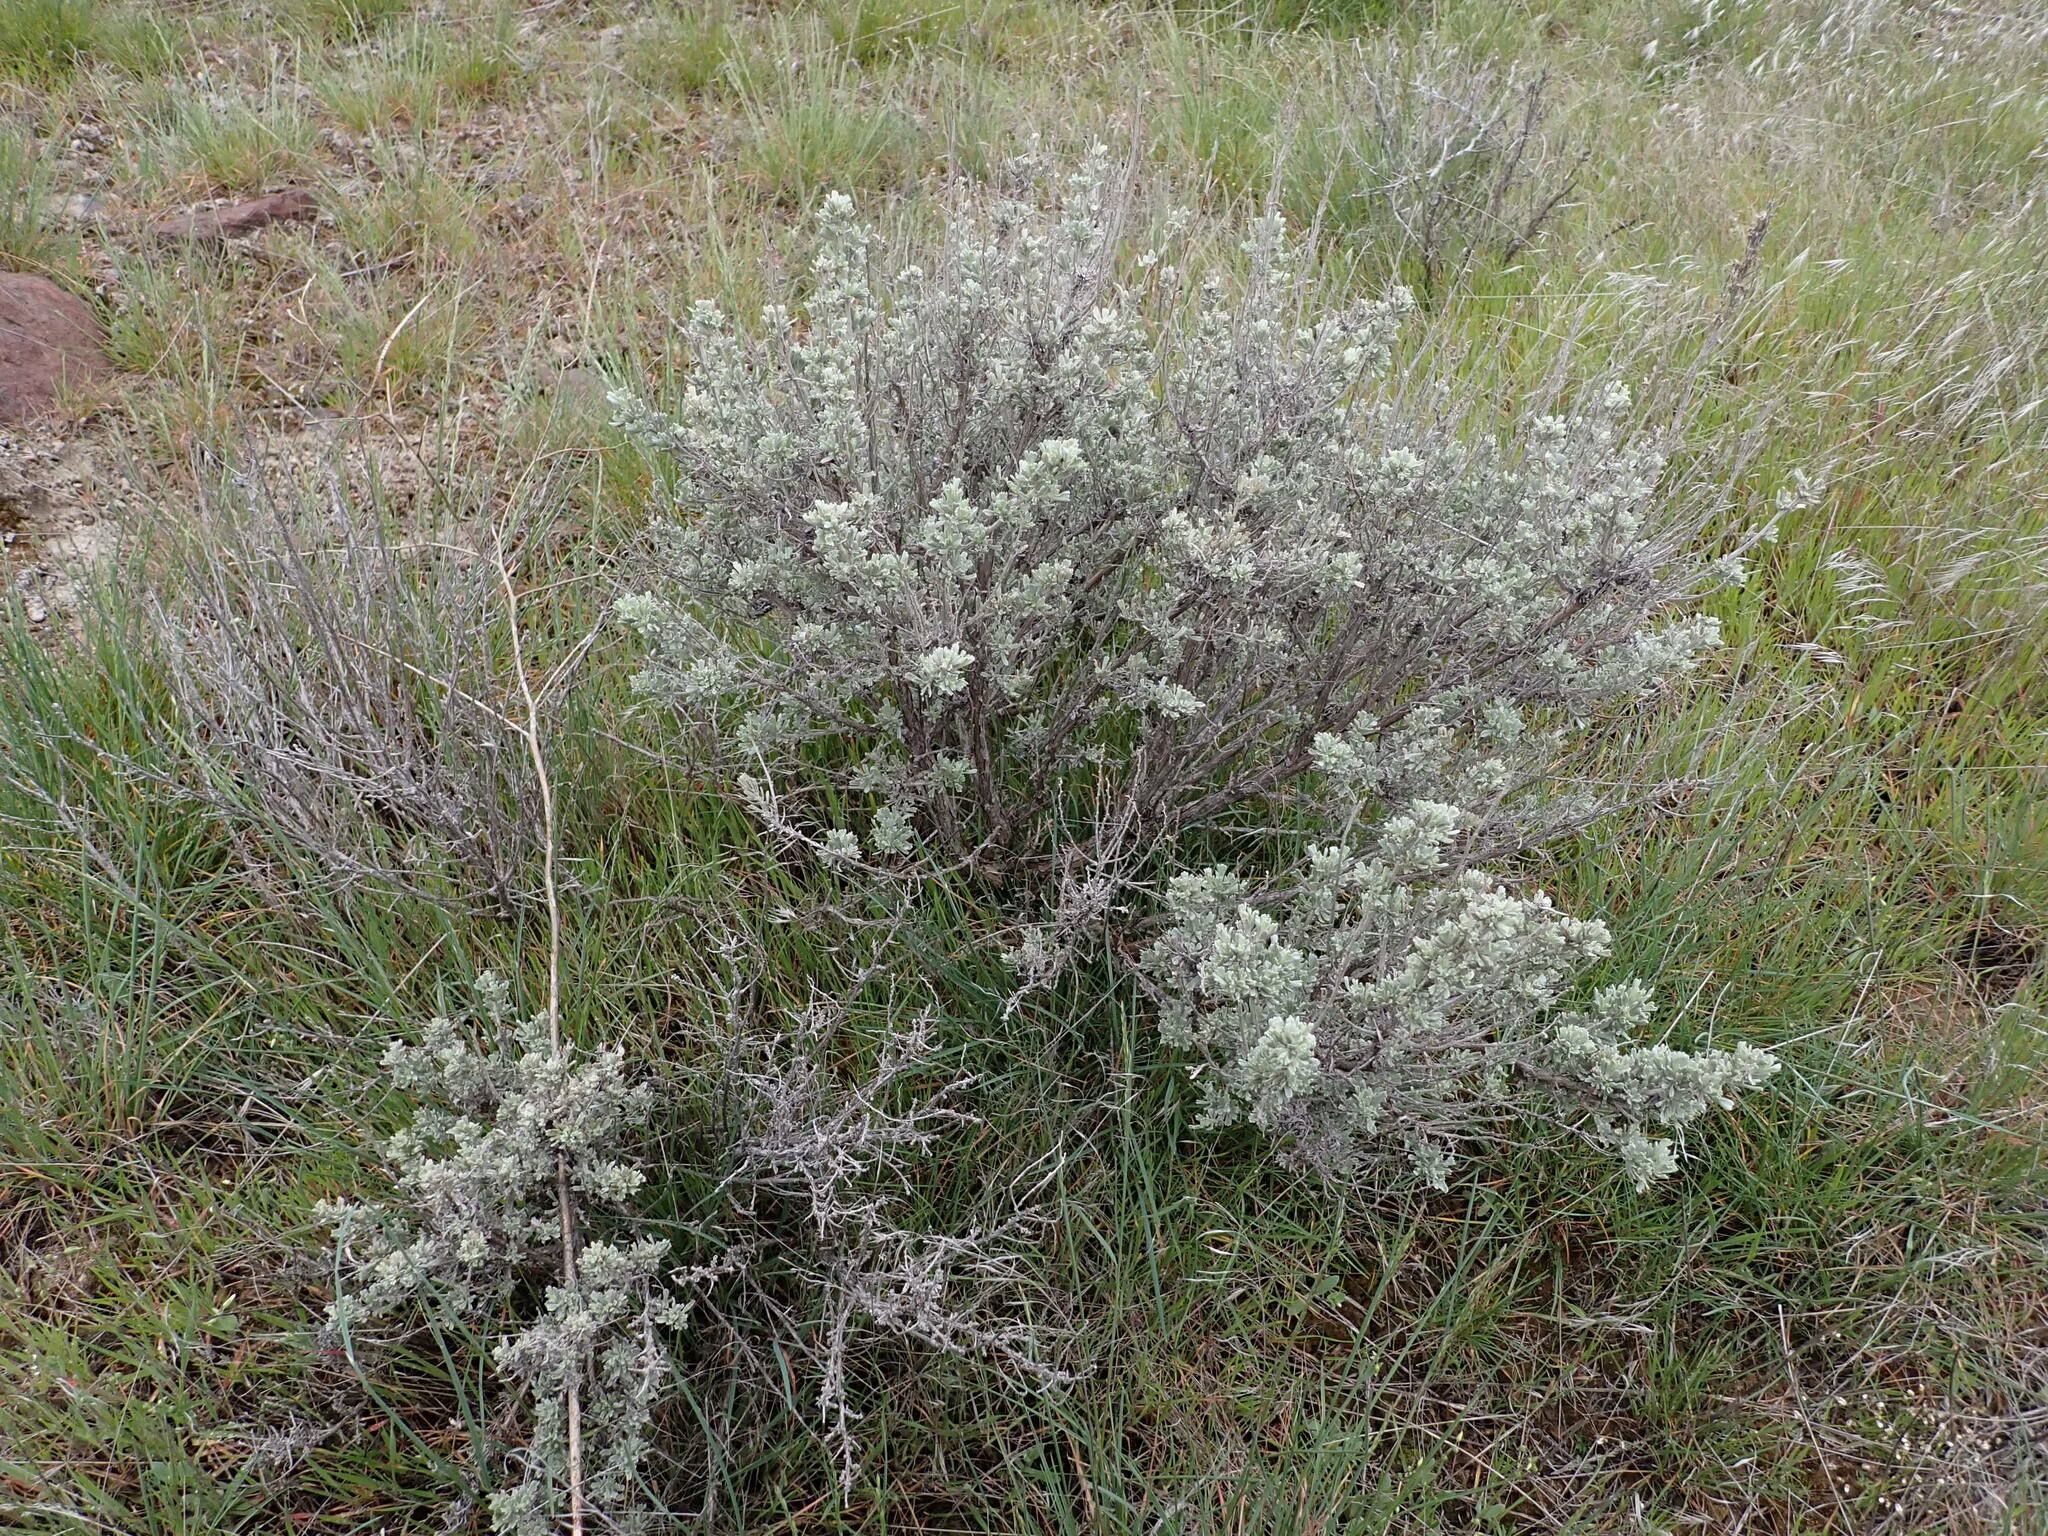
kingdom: Plantae
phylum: Tracheophyta
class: Magnoliopsida
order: Asterales
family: Asteraceae
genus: Artemisia
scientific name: Artemisia tridentata
